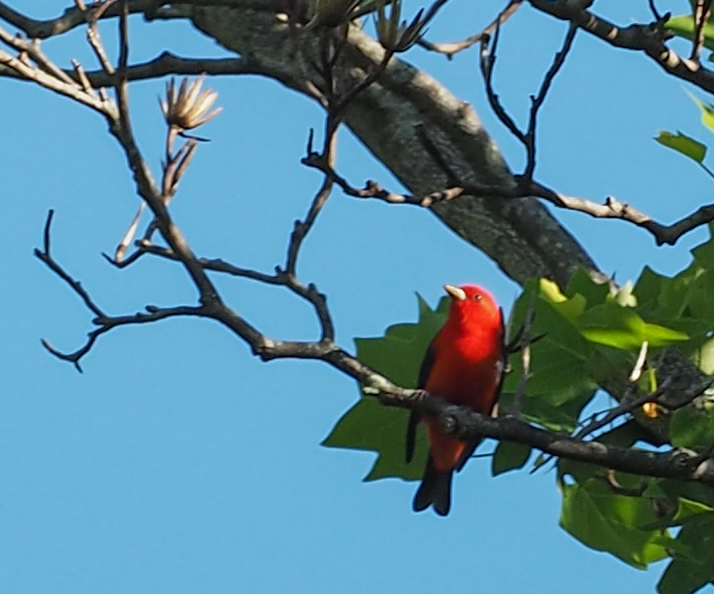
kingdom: Animalia
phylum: Chordata
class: Aves
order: Passeriformes
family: Cardinalidae
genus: Piranga
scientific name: Piranga olivacea
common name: Scarlet tanager
